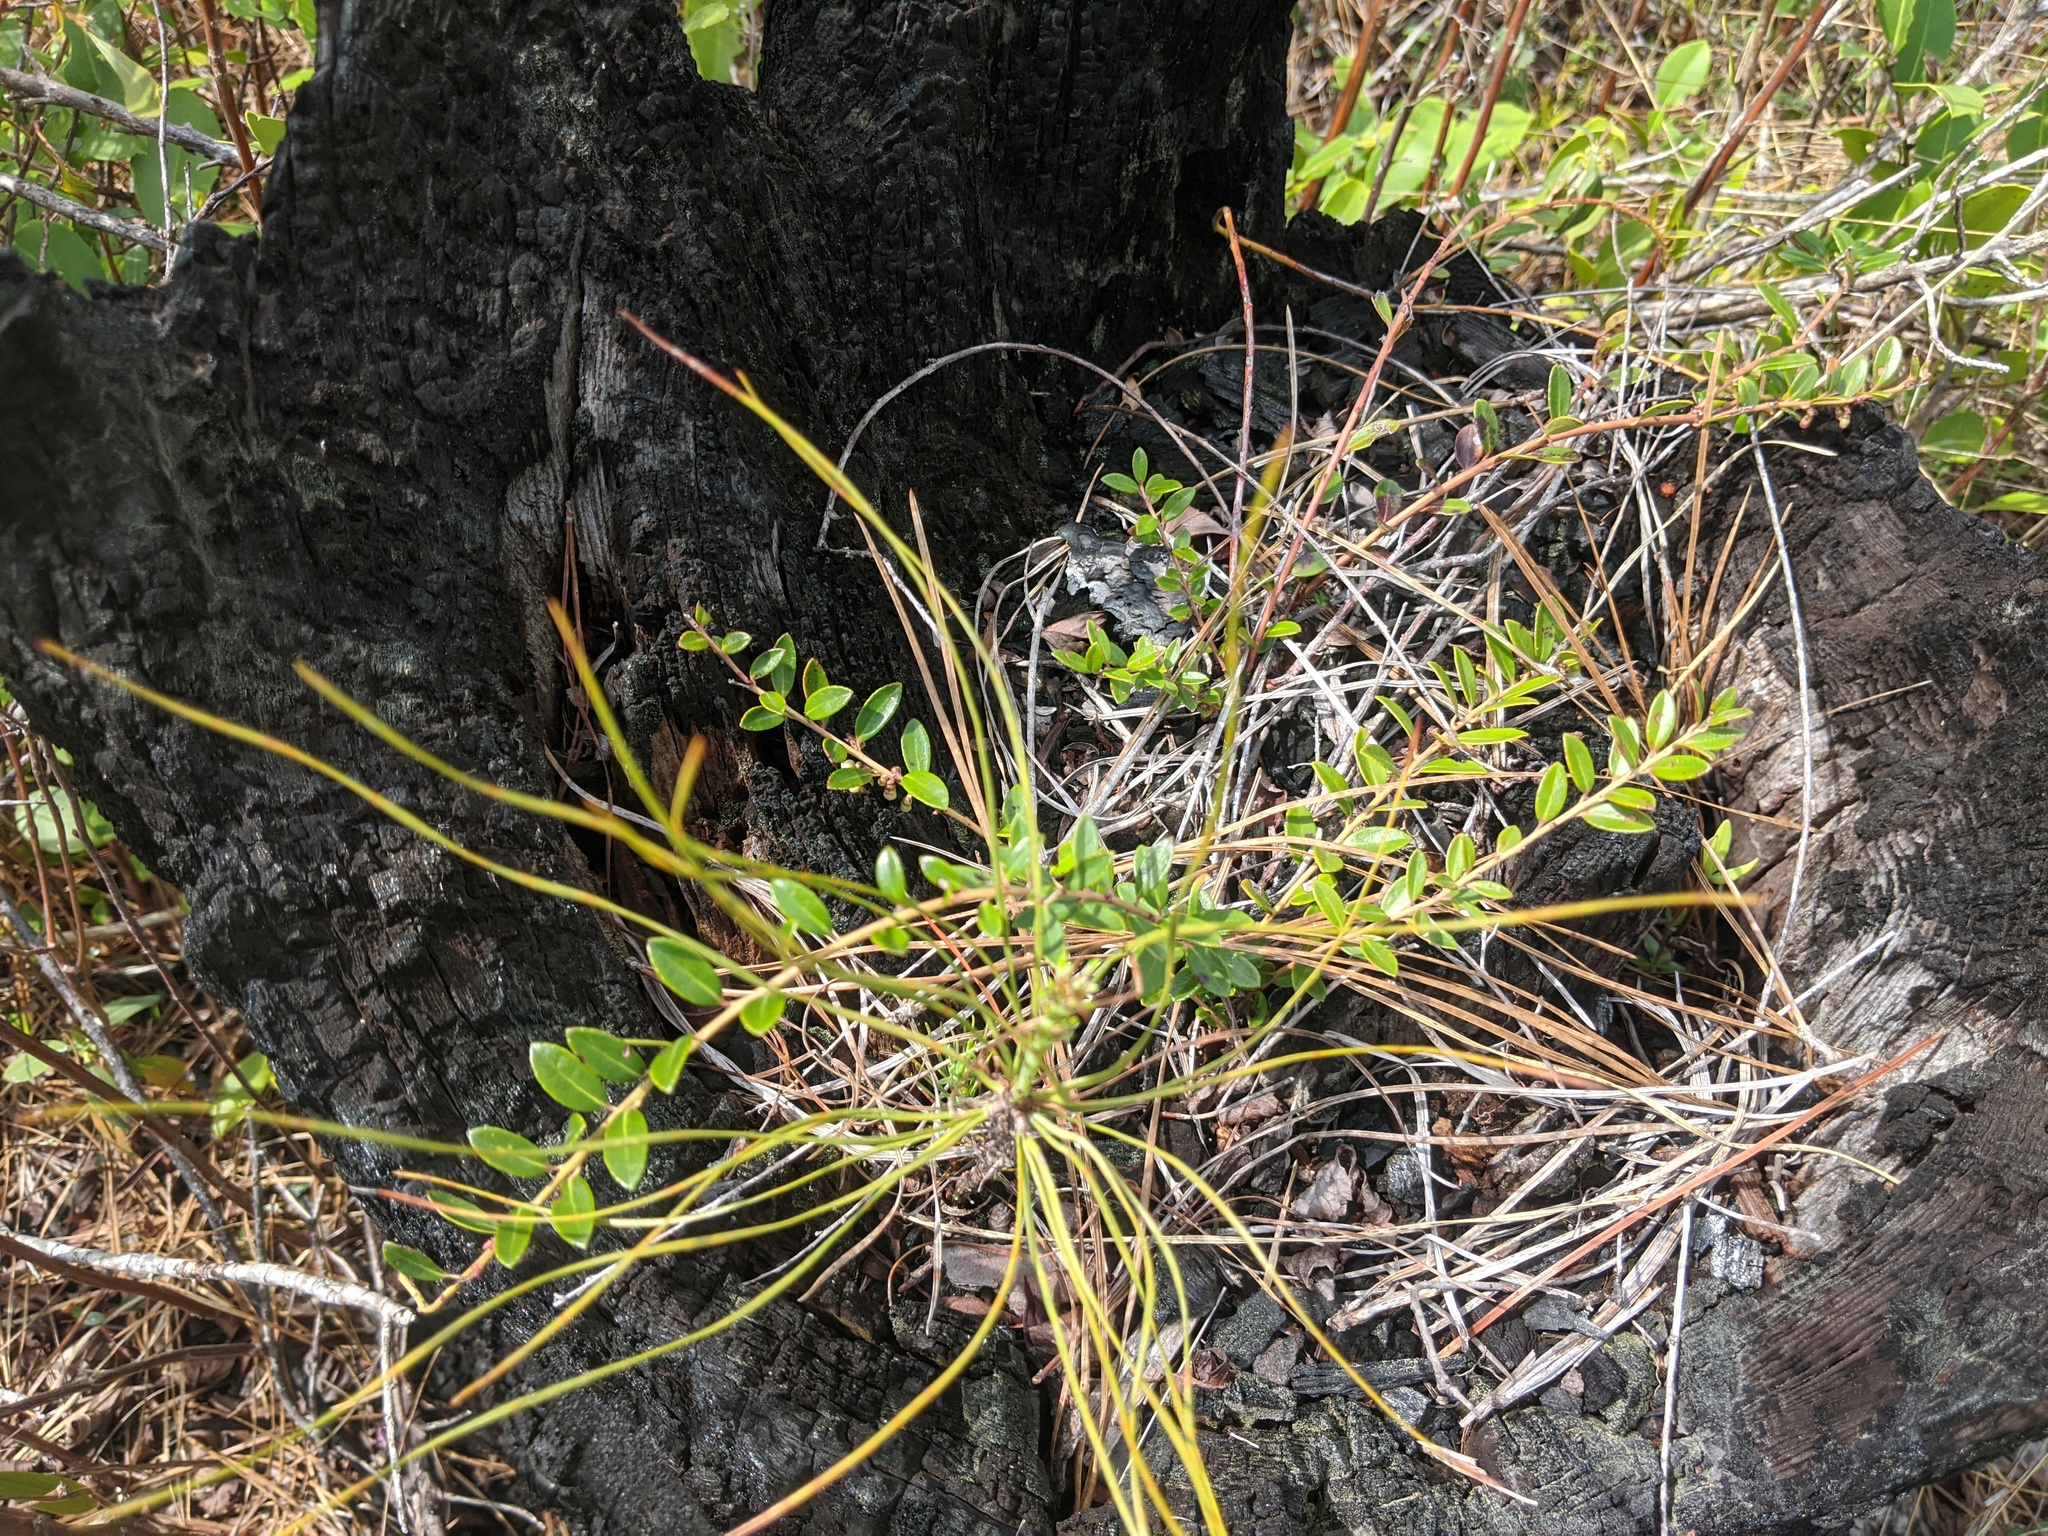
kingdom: Plantae
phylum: Tracheophyta
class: Magnoliopsida
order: Ericales
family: Ericaceae
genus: Vaccinium
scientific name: Vaccinium crassifolium
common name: Creeping blueberry
